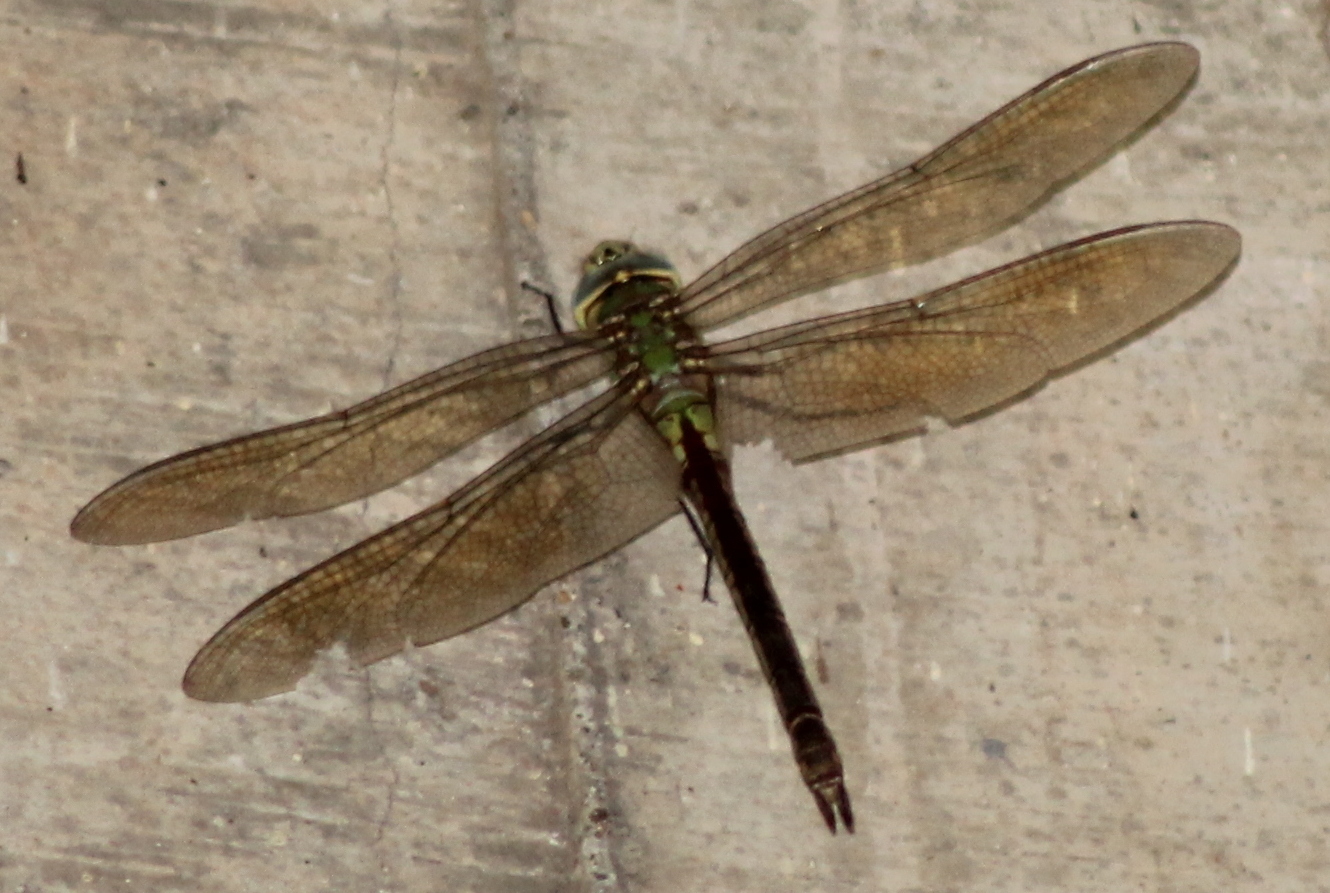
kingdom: Animalia
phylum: Arthropoda
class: Insecta
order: Odonata
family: Aeshnidae
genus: Anax
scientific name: Anax junius
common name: Common green darner
